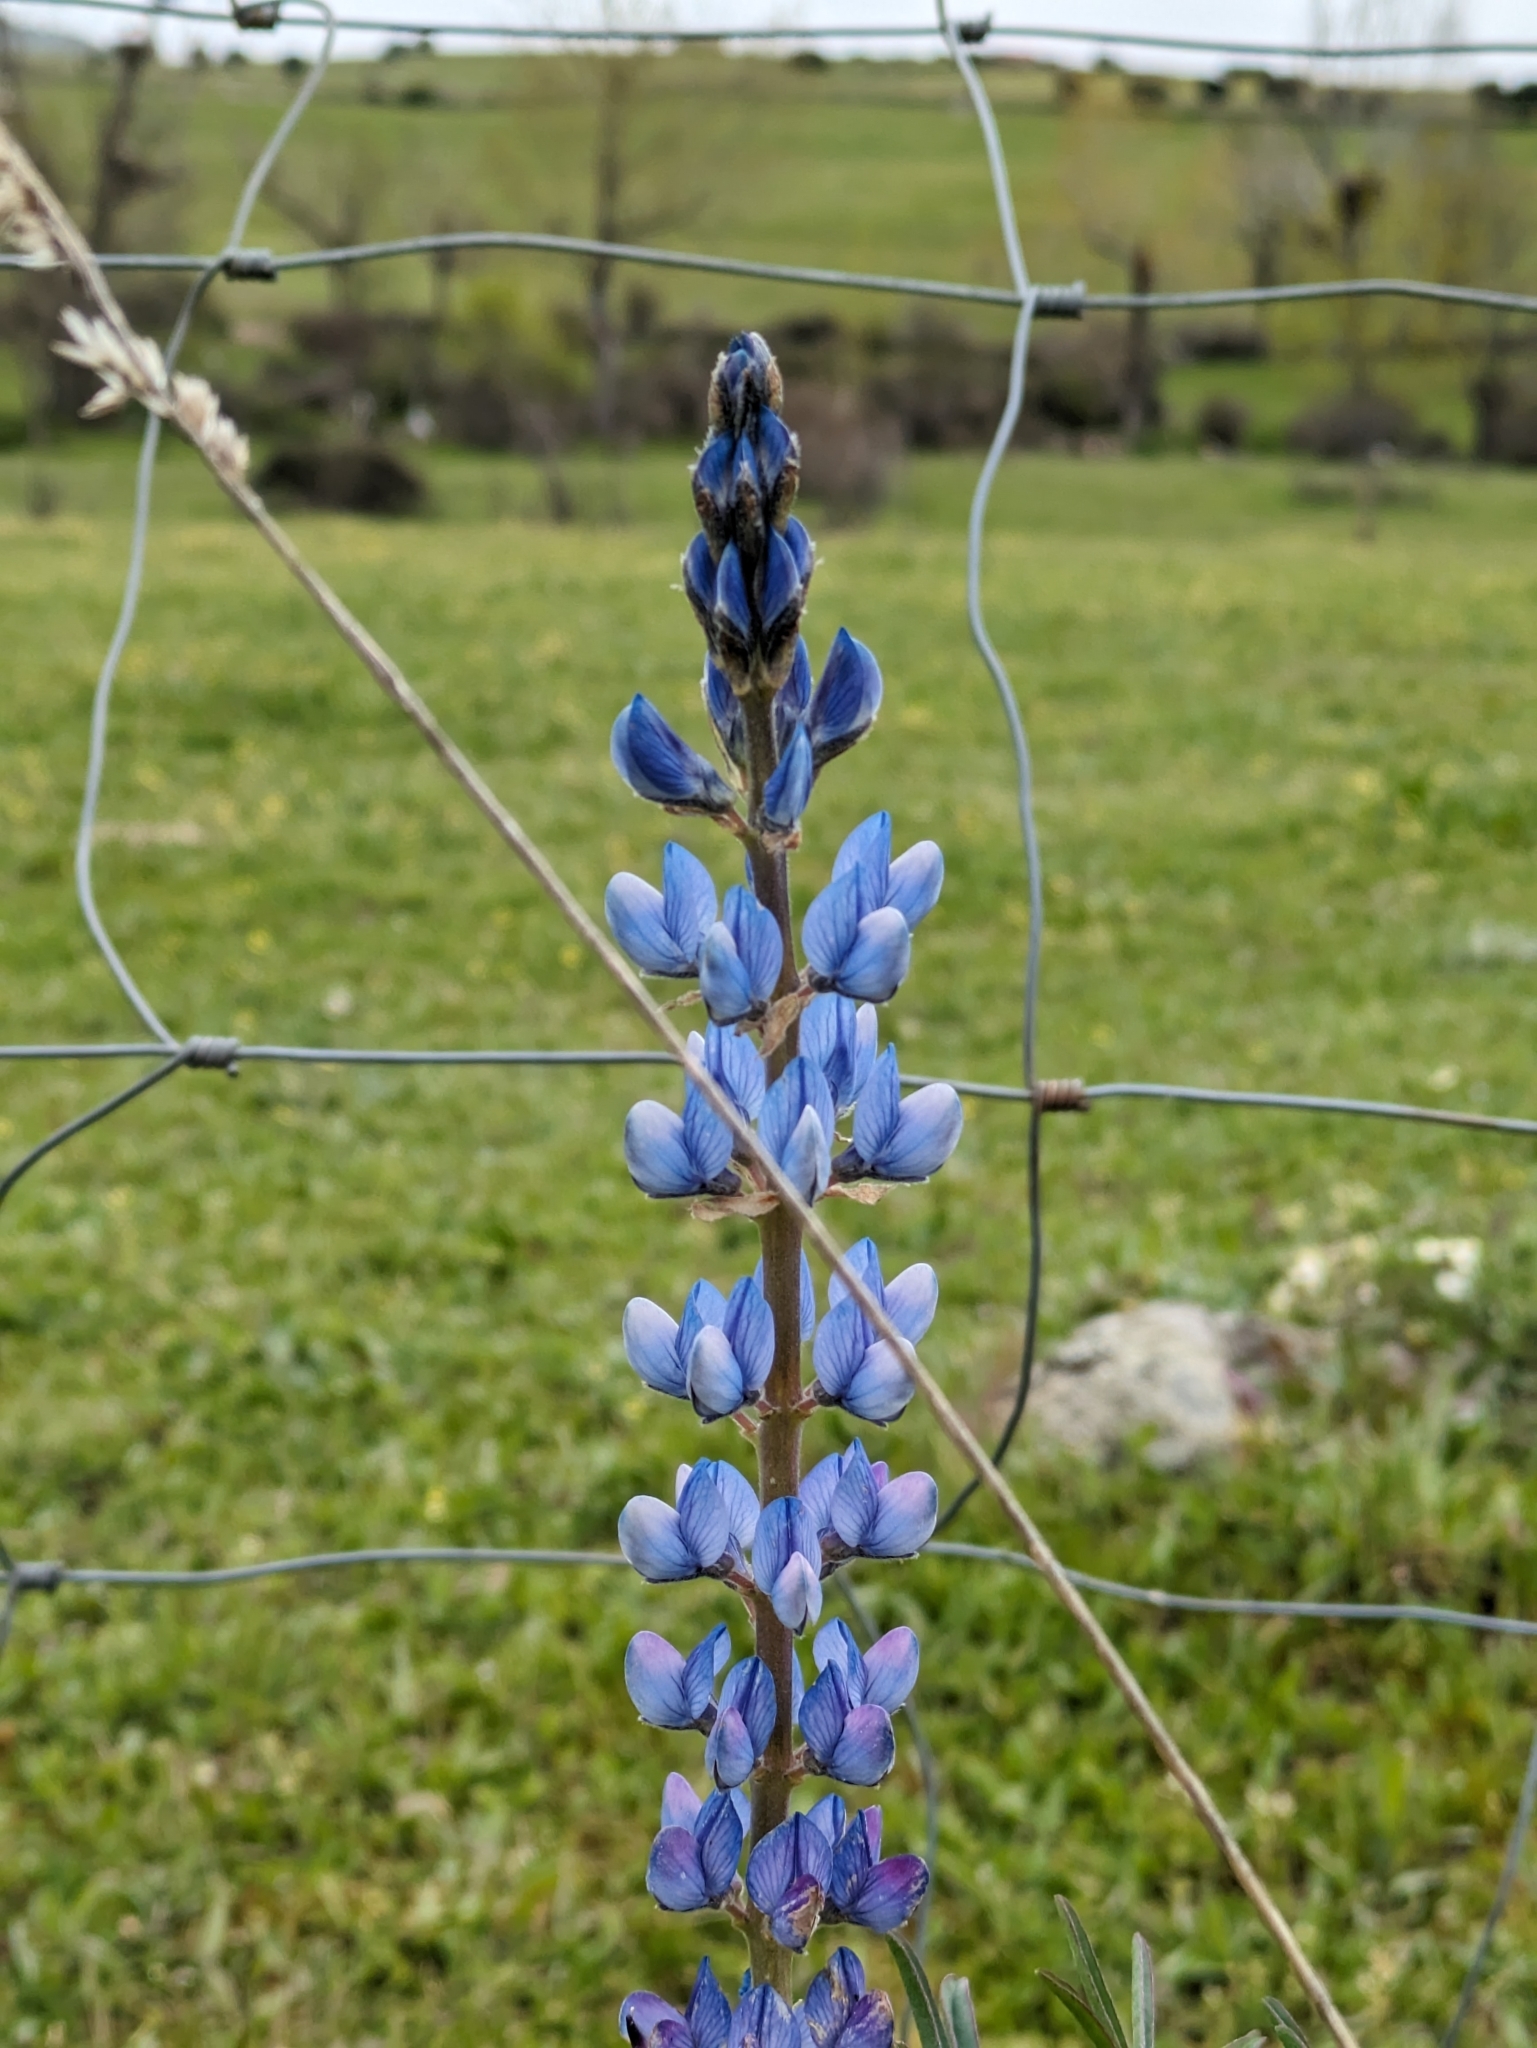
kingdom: Plantae
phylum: Tracheophyta
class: Magnoliopsida
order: Fabales
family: Fabaceae
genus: Lupinus
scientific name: Lupinus angustifolius
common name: Narrow-leaved lupin
